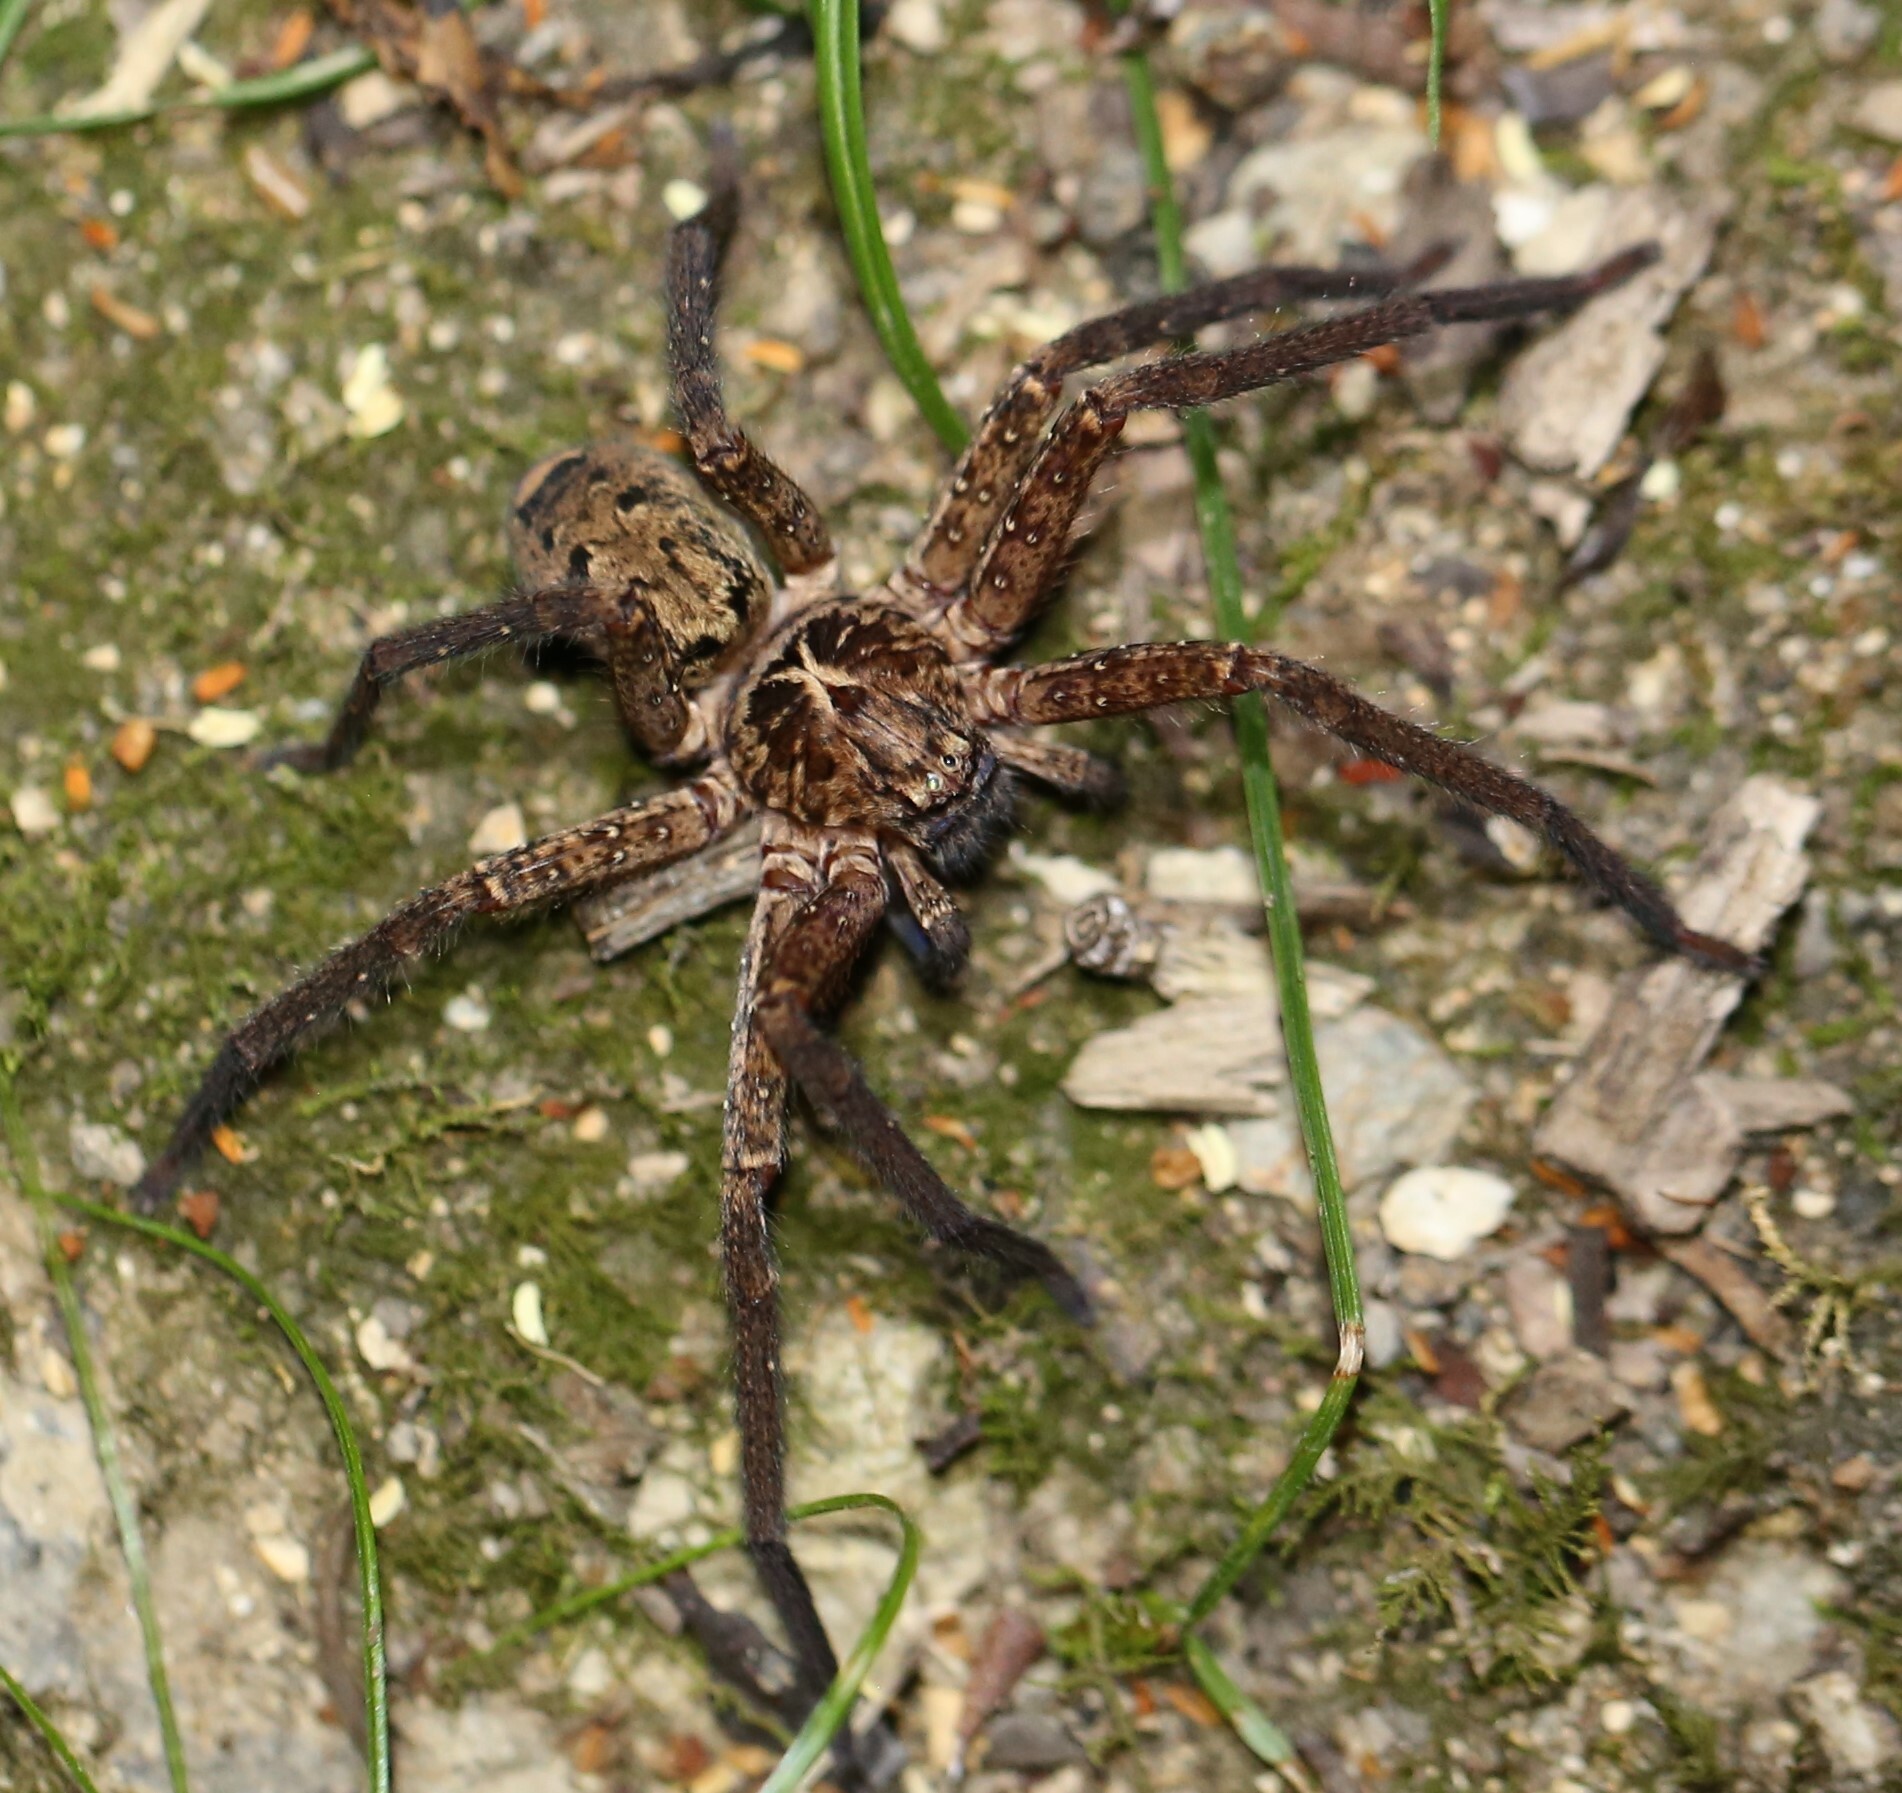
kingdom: Animalia
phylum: Arthropoda
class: Arachnida
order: Araneae
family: Sparassidae
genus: Heteropoda
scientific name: Heteropoda hillerae
